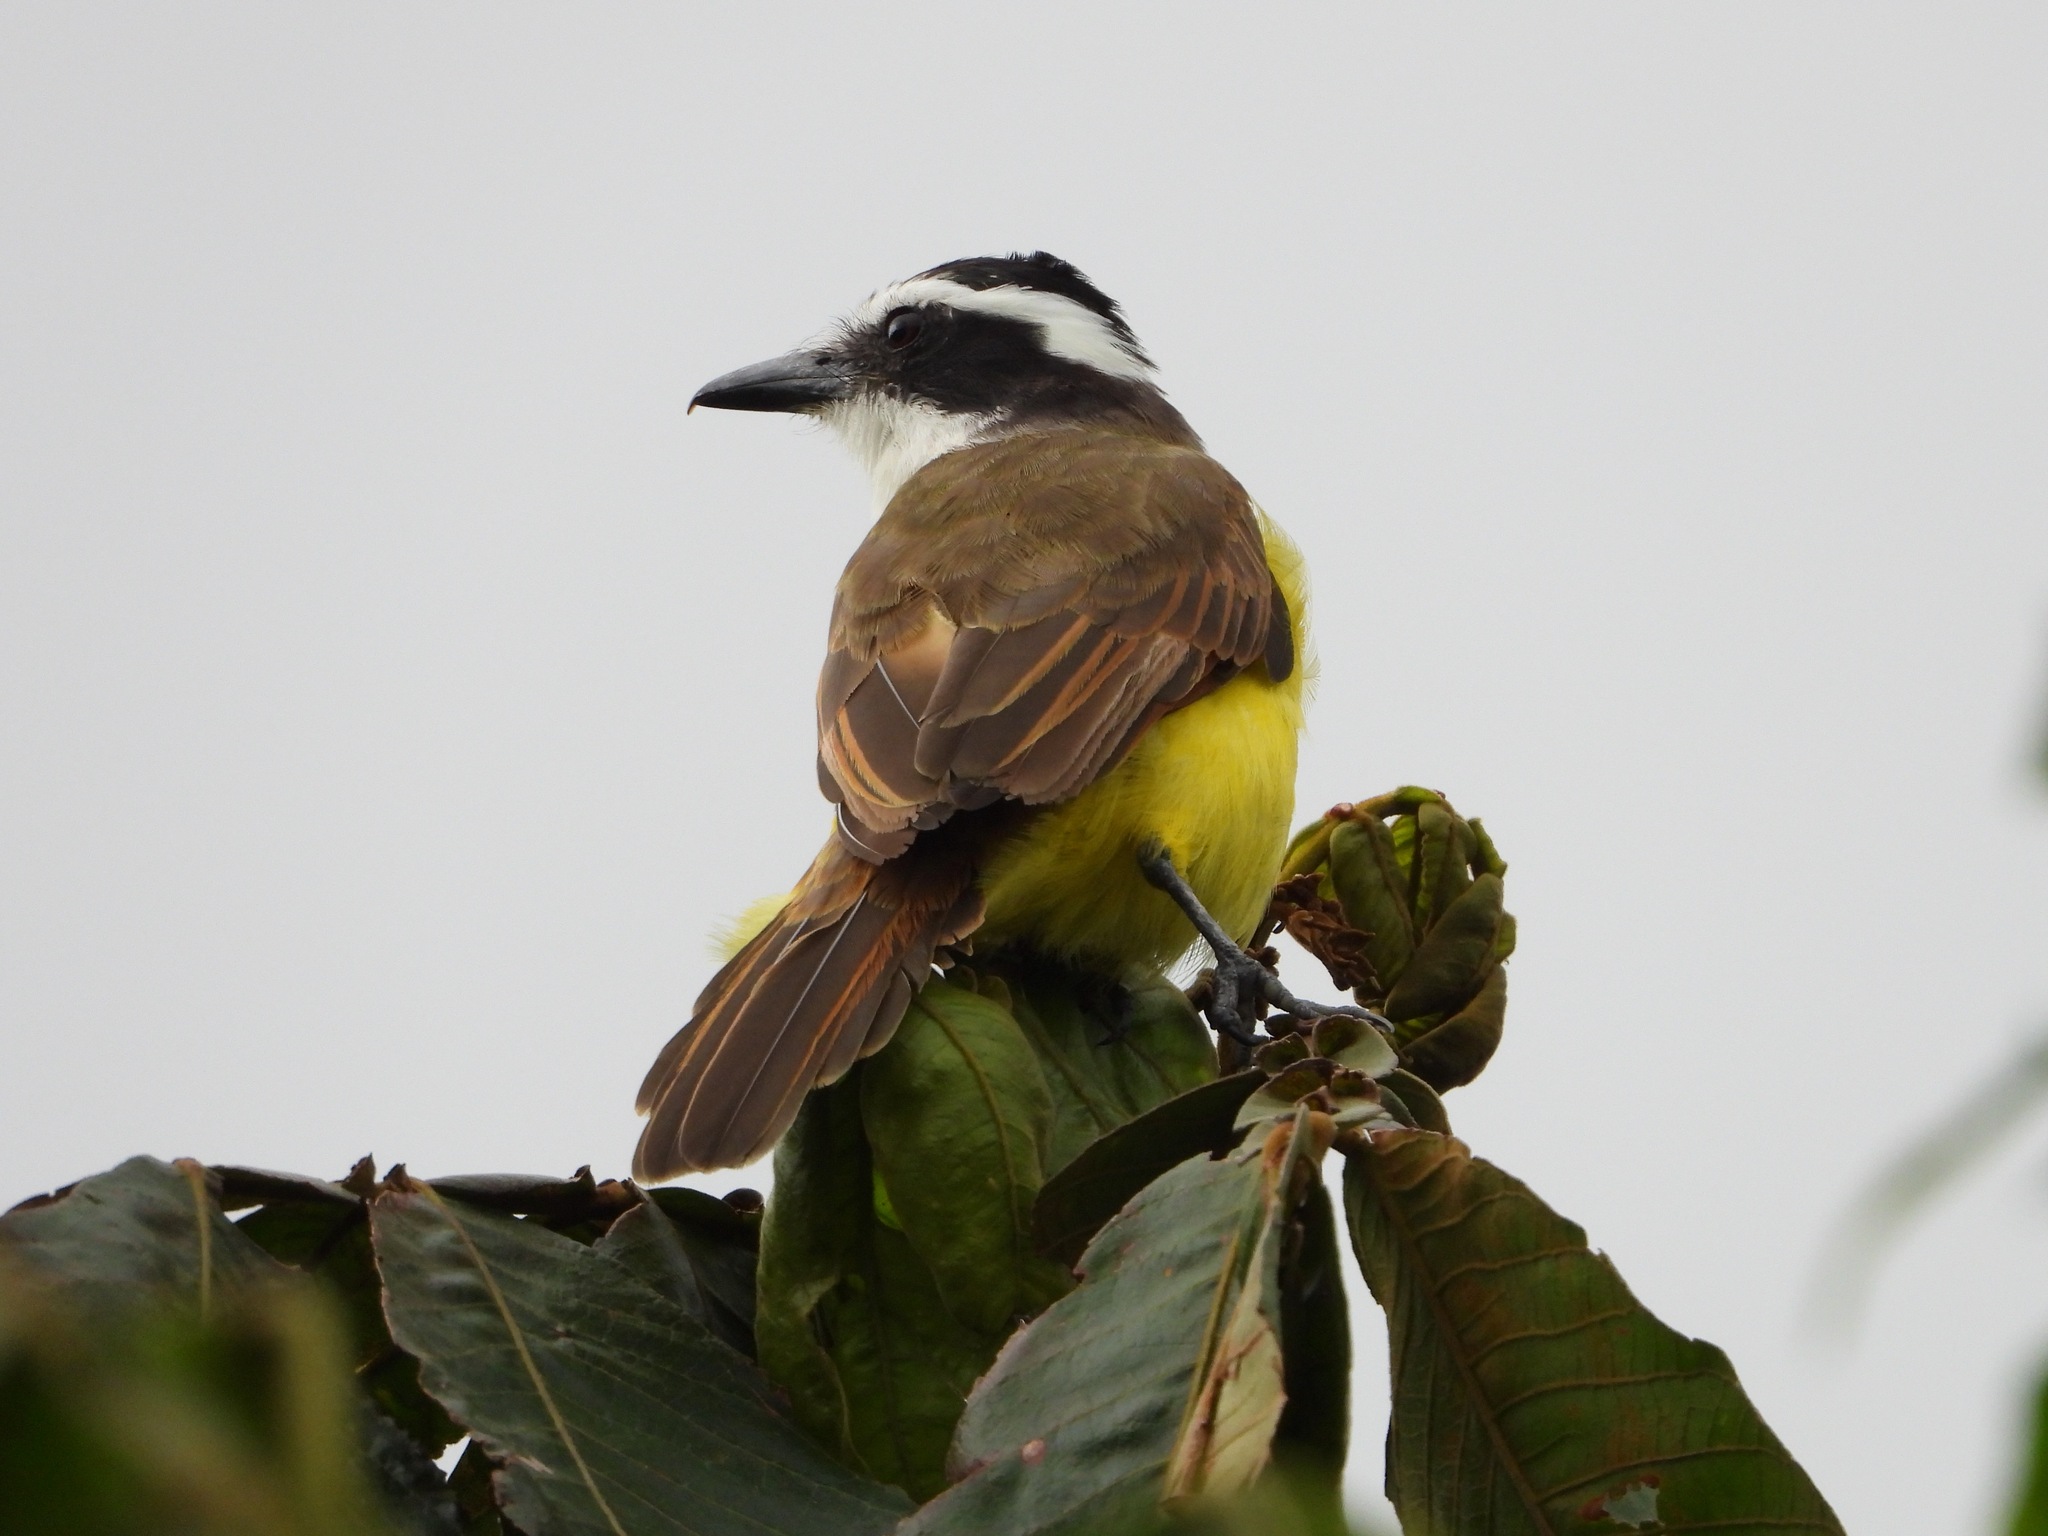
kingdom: Animalia
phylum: Chordata
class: Aves
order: Passeriformes
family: Tyrannidae
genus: Pitangus
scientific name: Pitangus sulphuratus
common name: Great kiskadee
